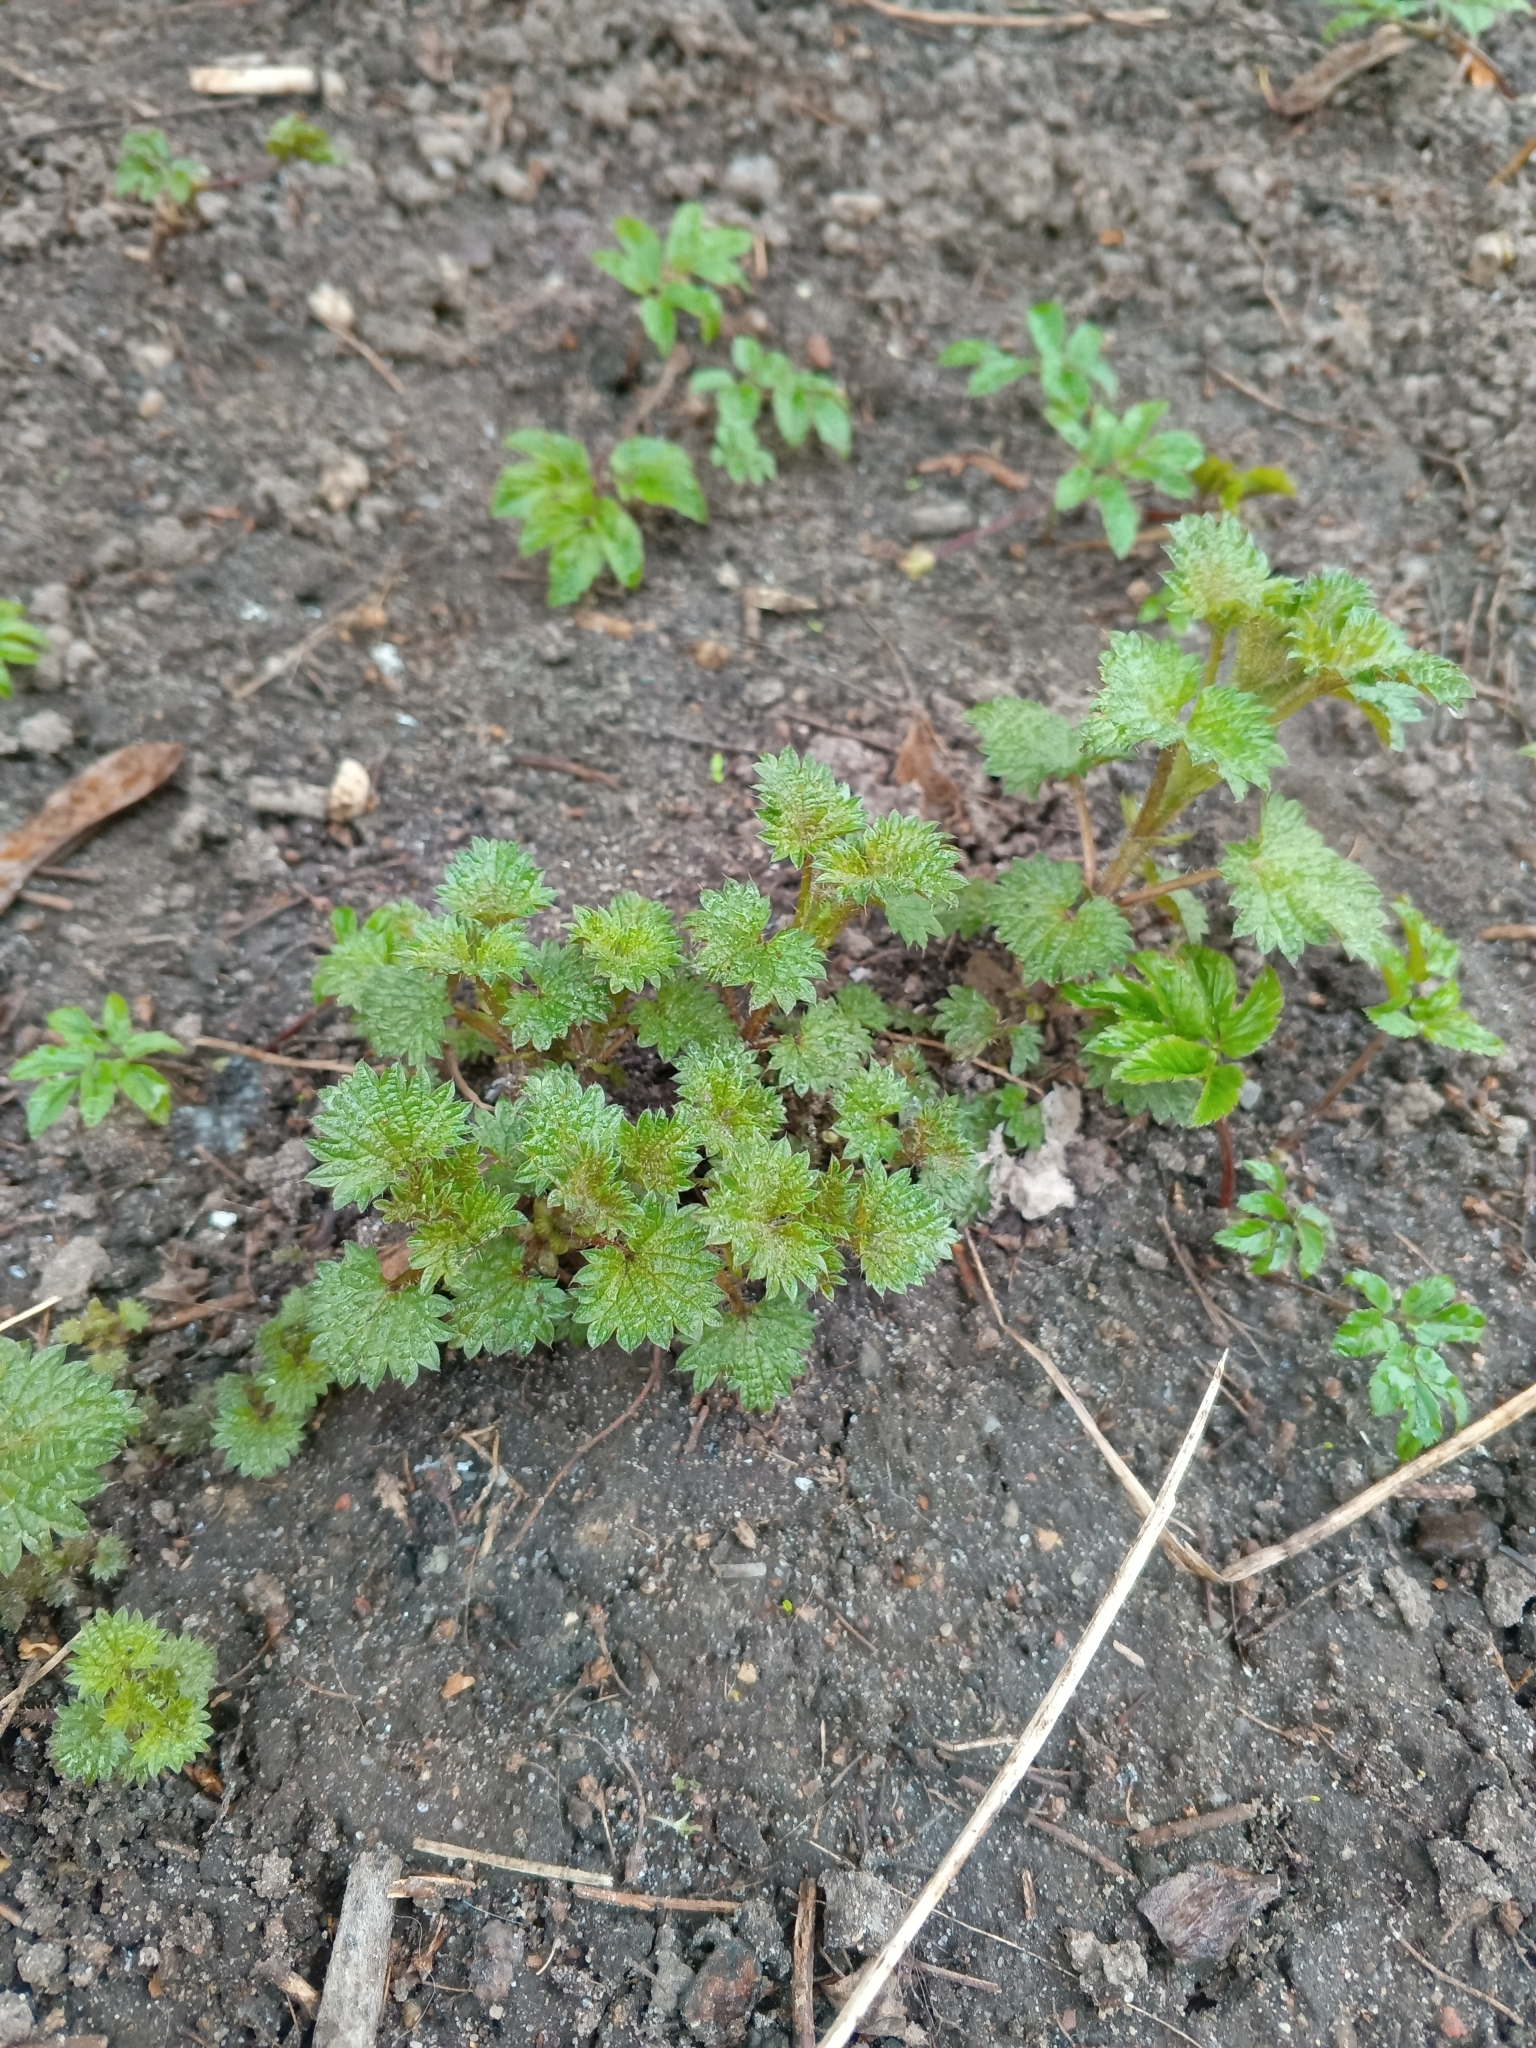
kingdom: Plantae
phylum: Tracheophyta
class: Magnoliopsida
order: Rosales
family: Urticaceae
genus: Urtica
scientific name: Urtica dioica
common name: Common nettle
